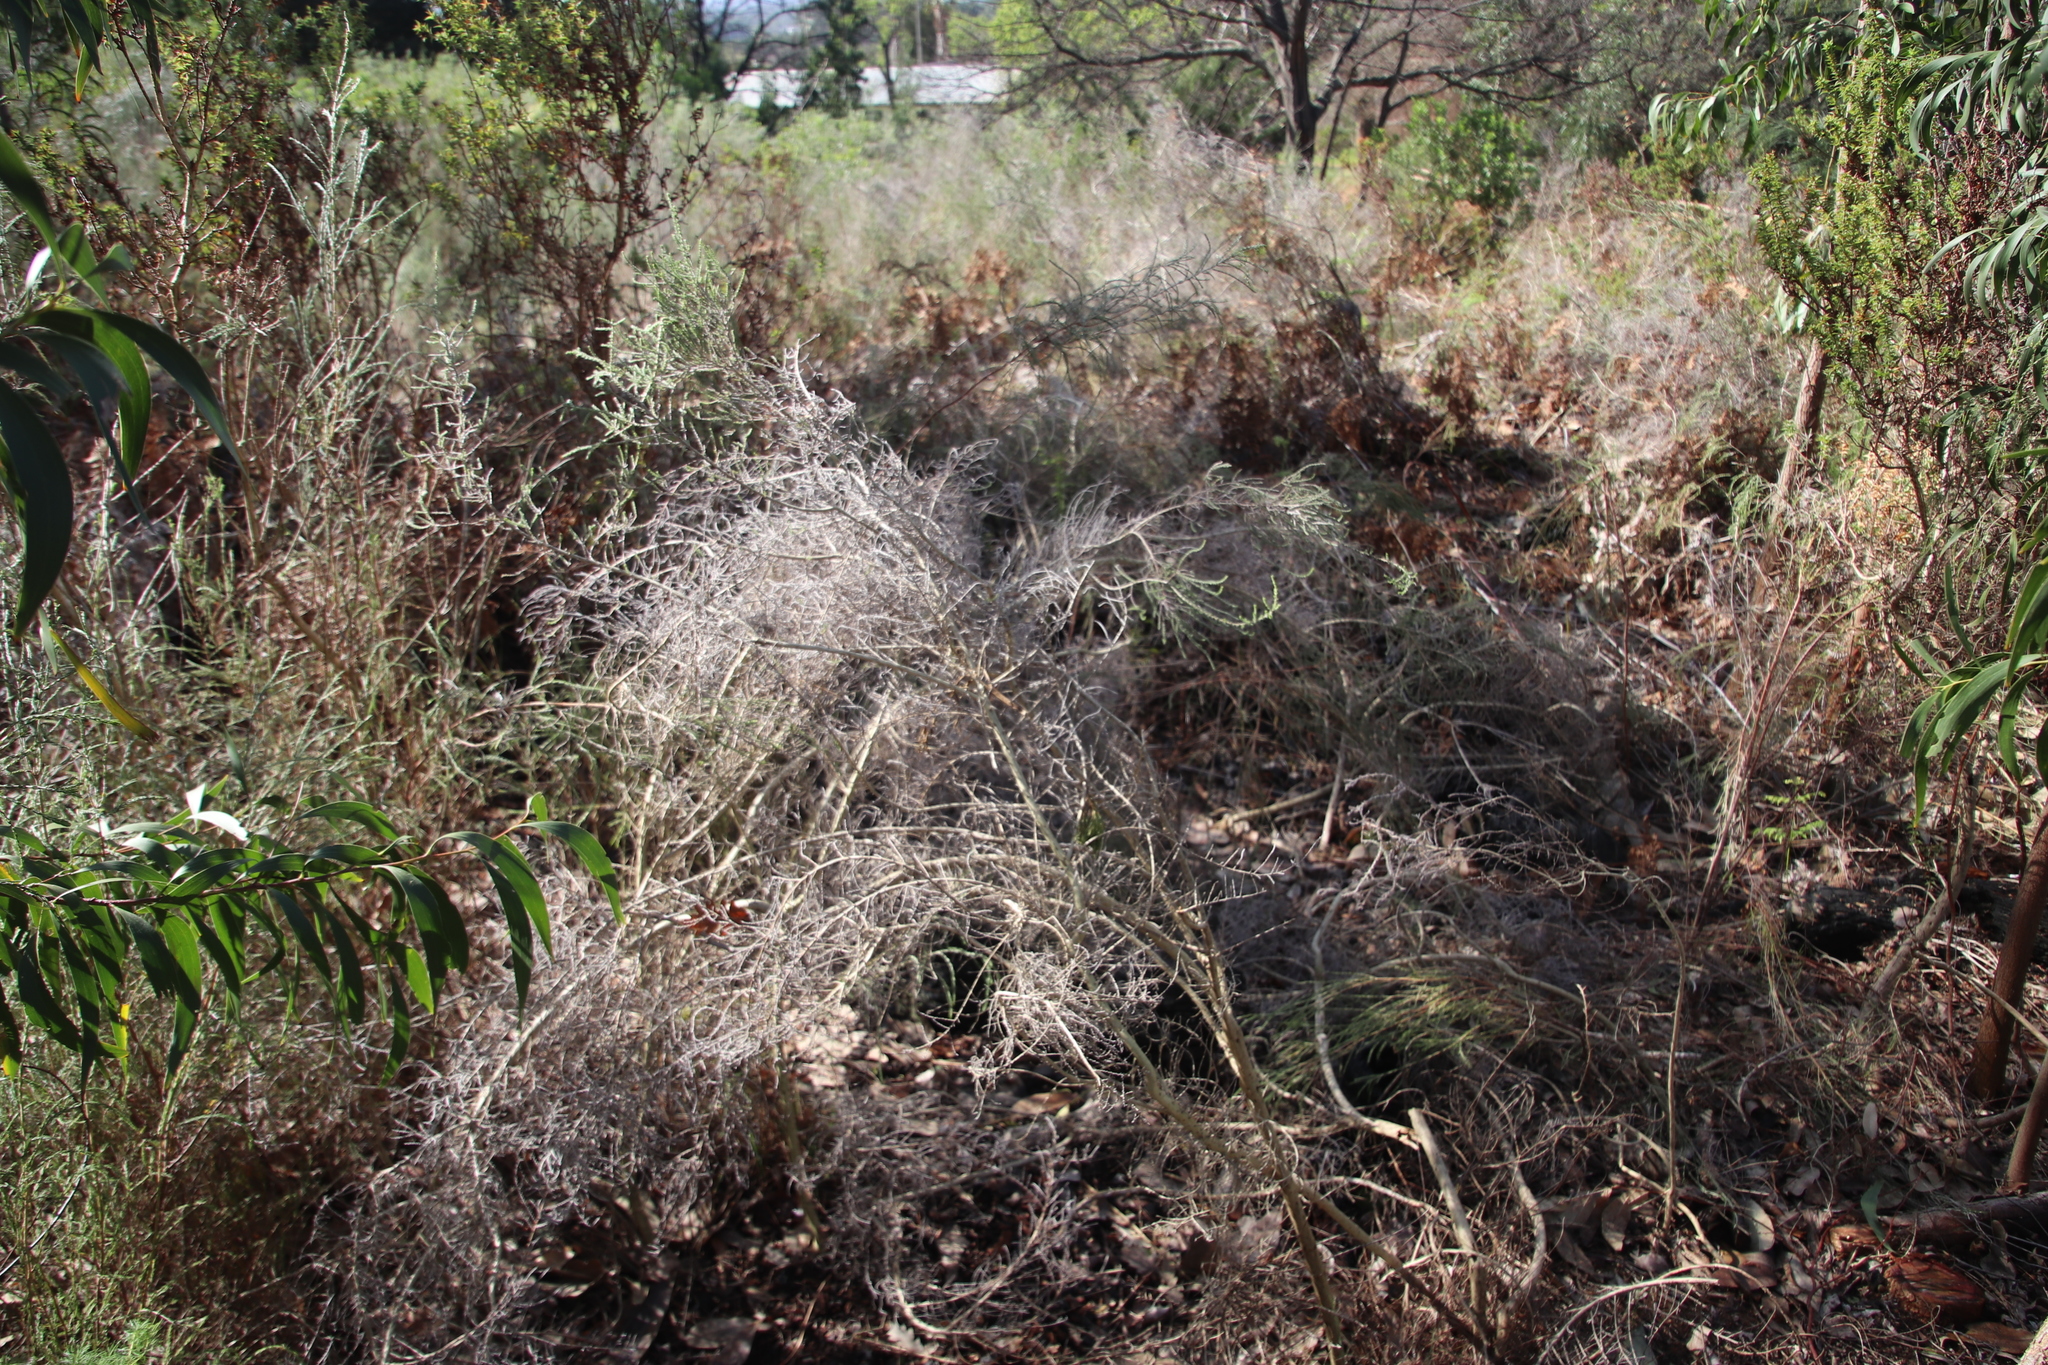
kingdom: Plantae
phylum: Tracheophyta
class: Magnoliopsida
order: Fabales
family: Fabaceae
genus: Aspalathus
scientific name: Aspalathus hispida
